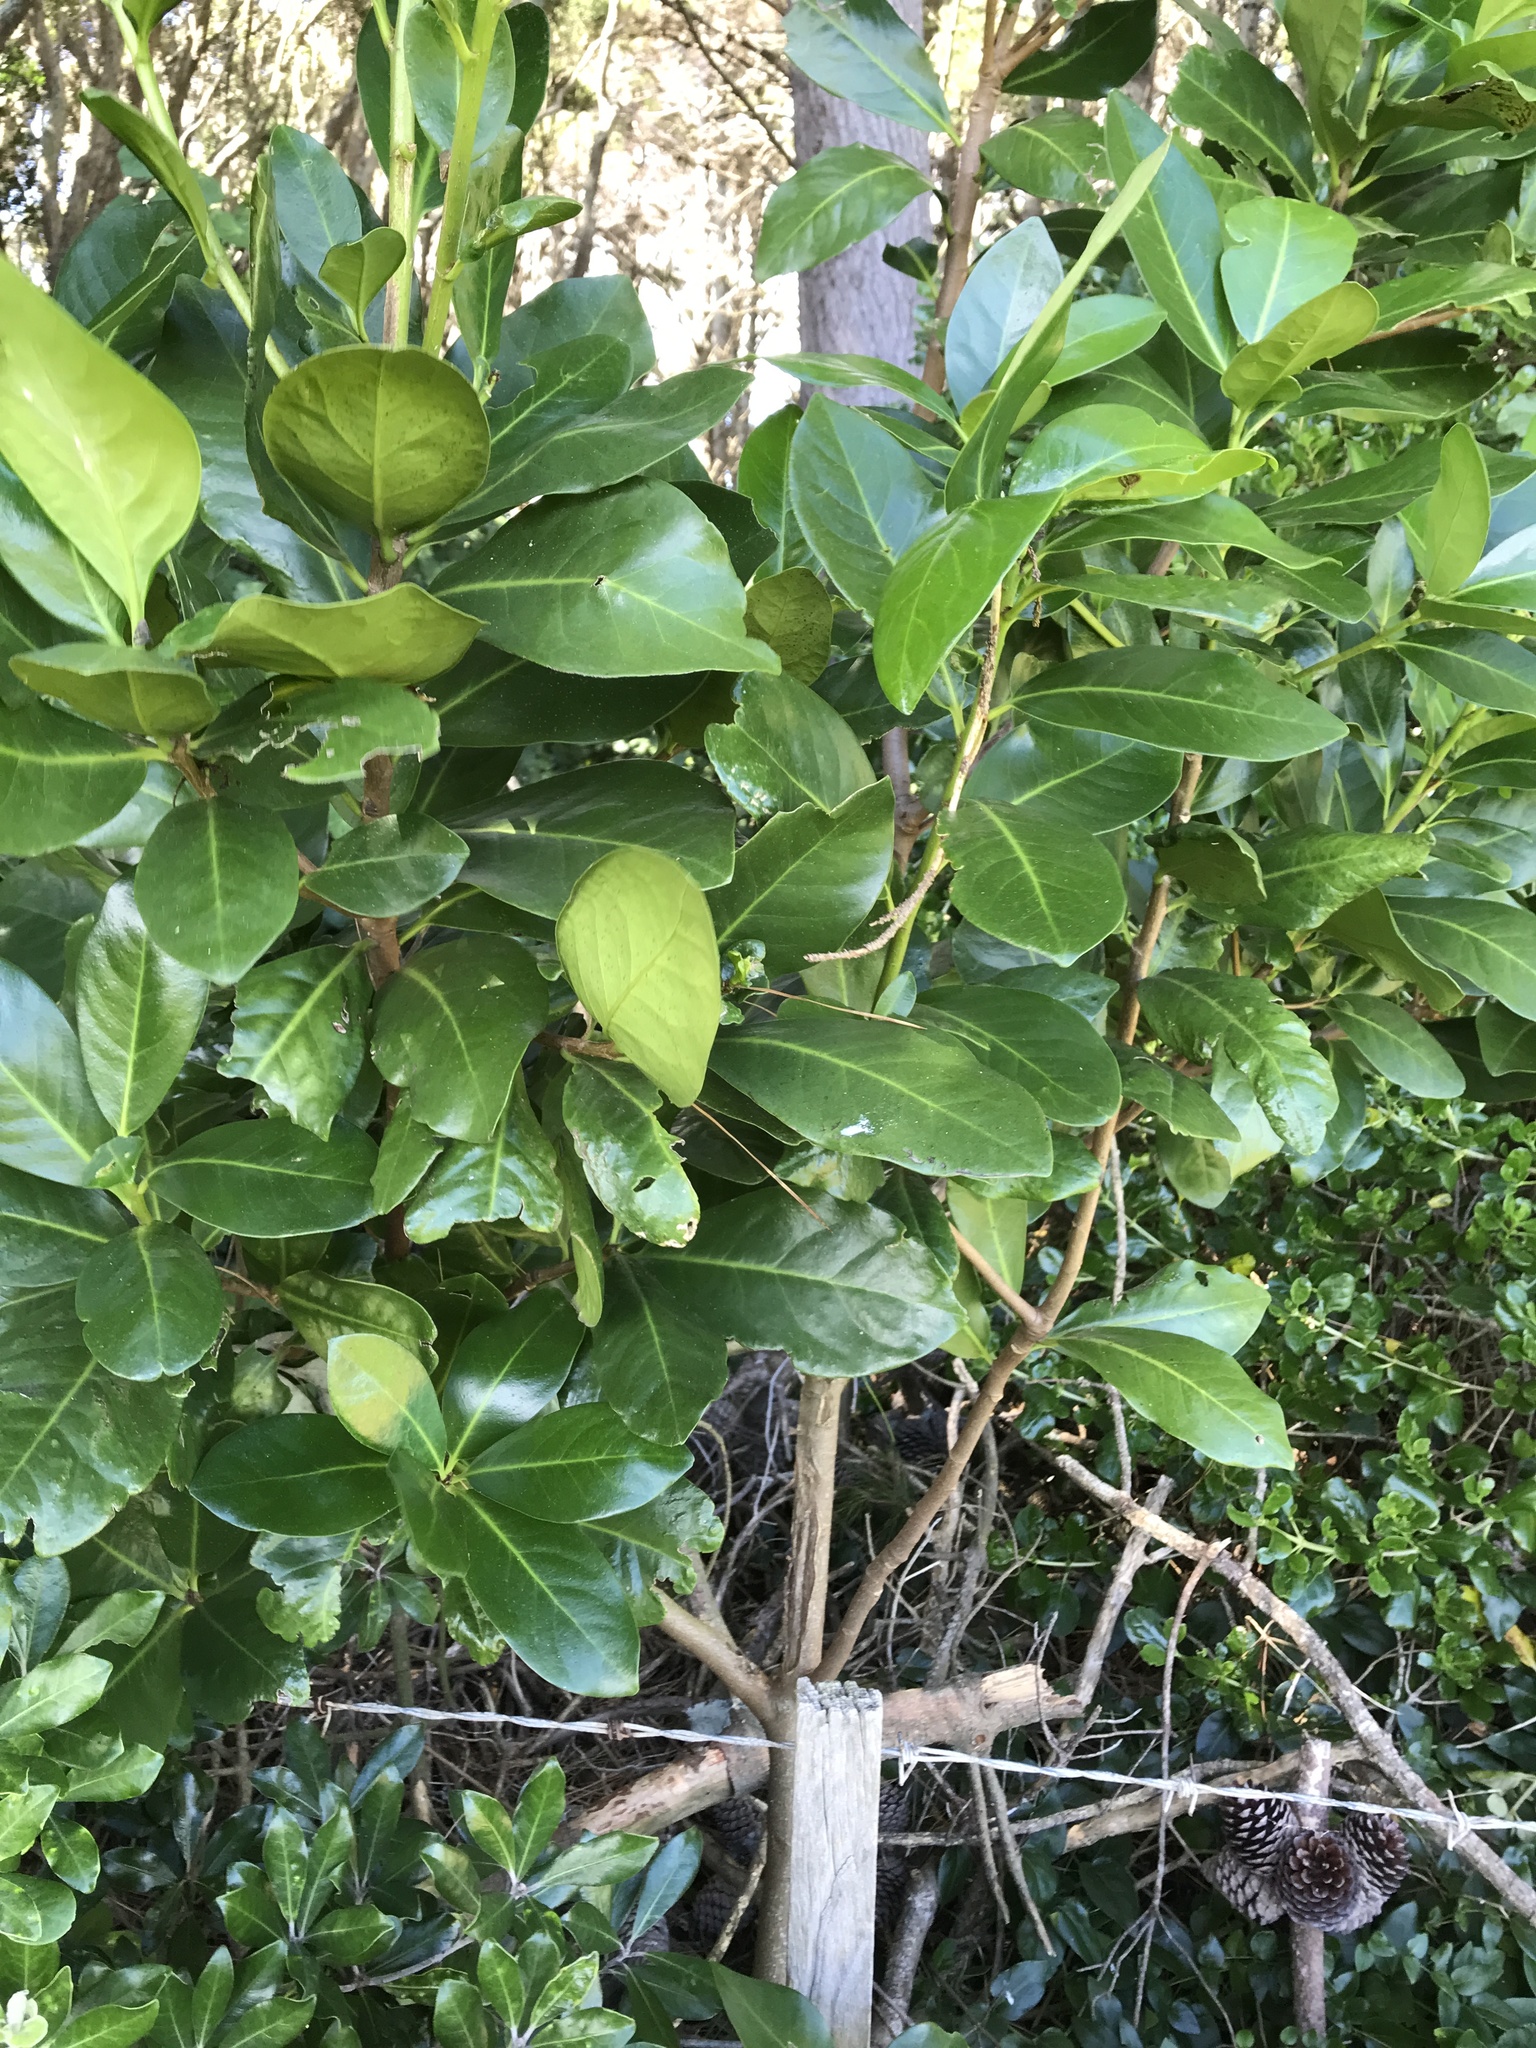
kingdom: Plantae
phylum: Tracheophyta
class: Magnoliopsida
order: Cucurbitales
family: Corynocarpaceae
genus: Corynocarpus
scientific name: Corynocarpus laevigatus
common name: New zealand laurel
